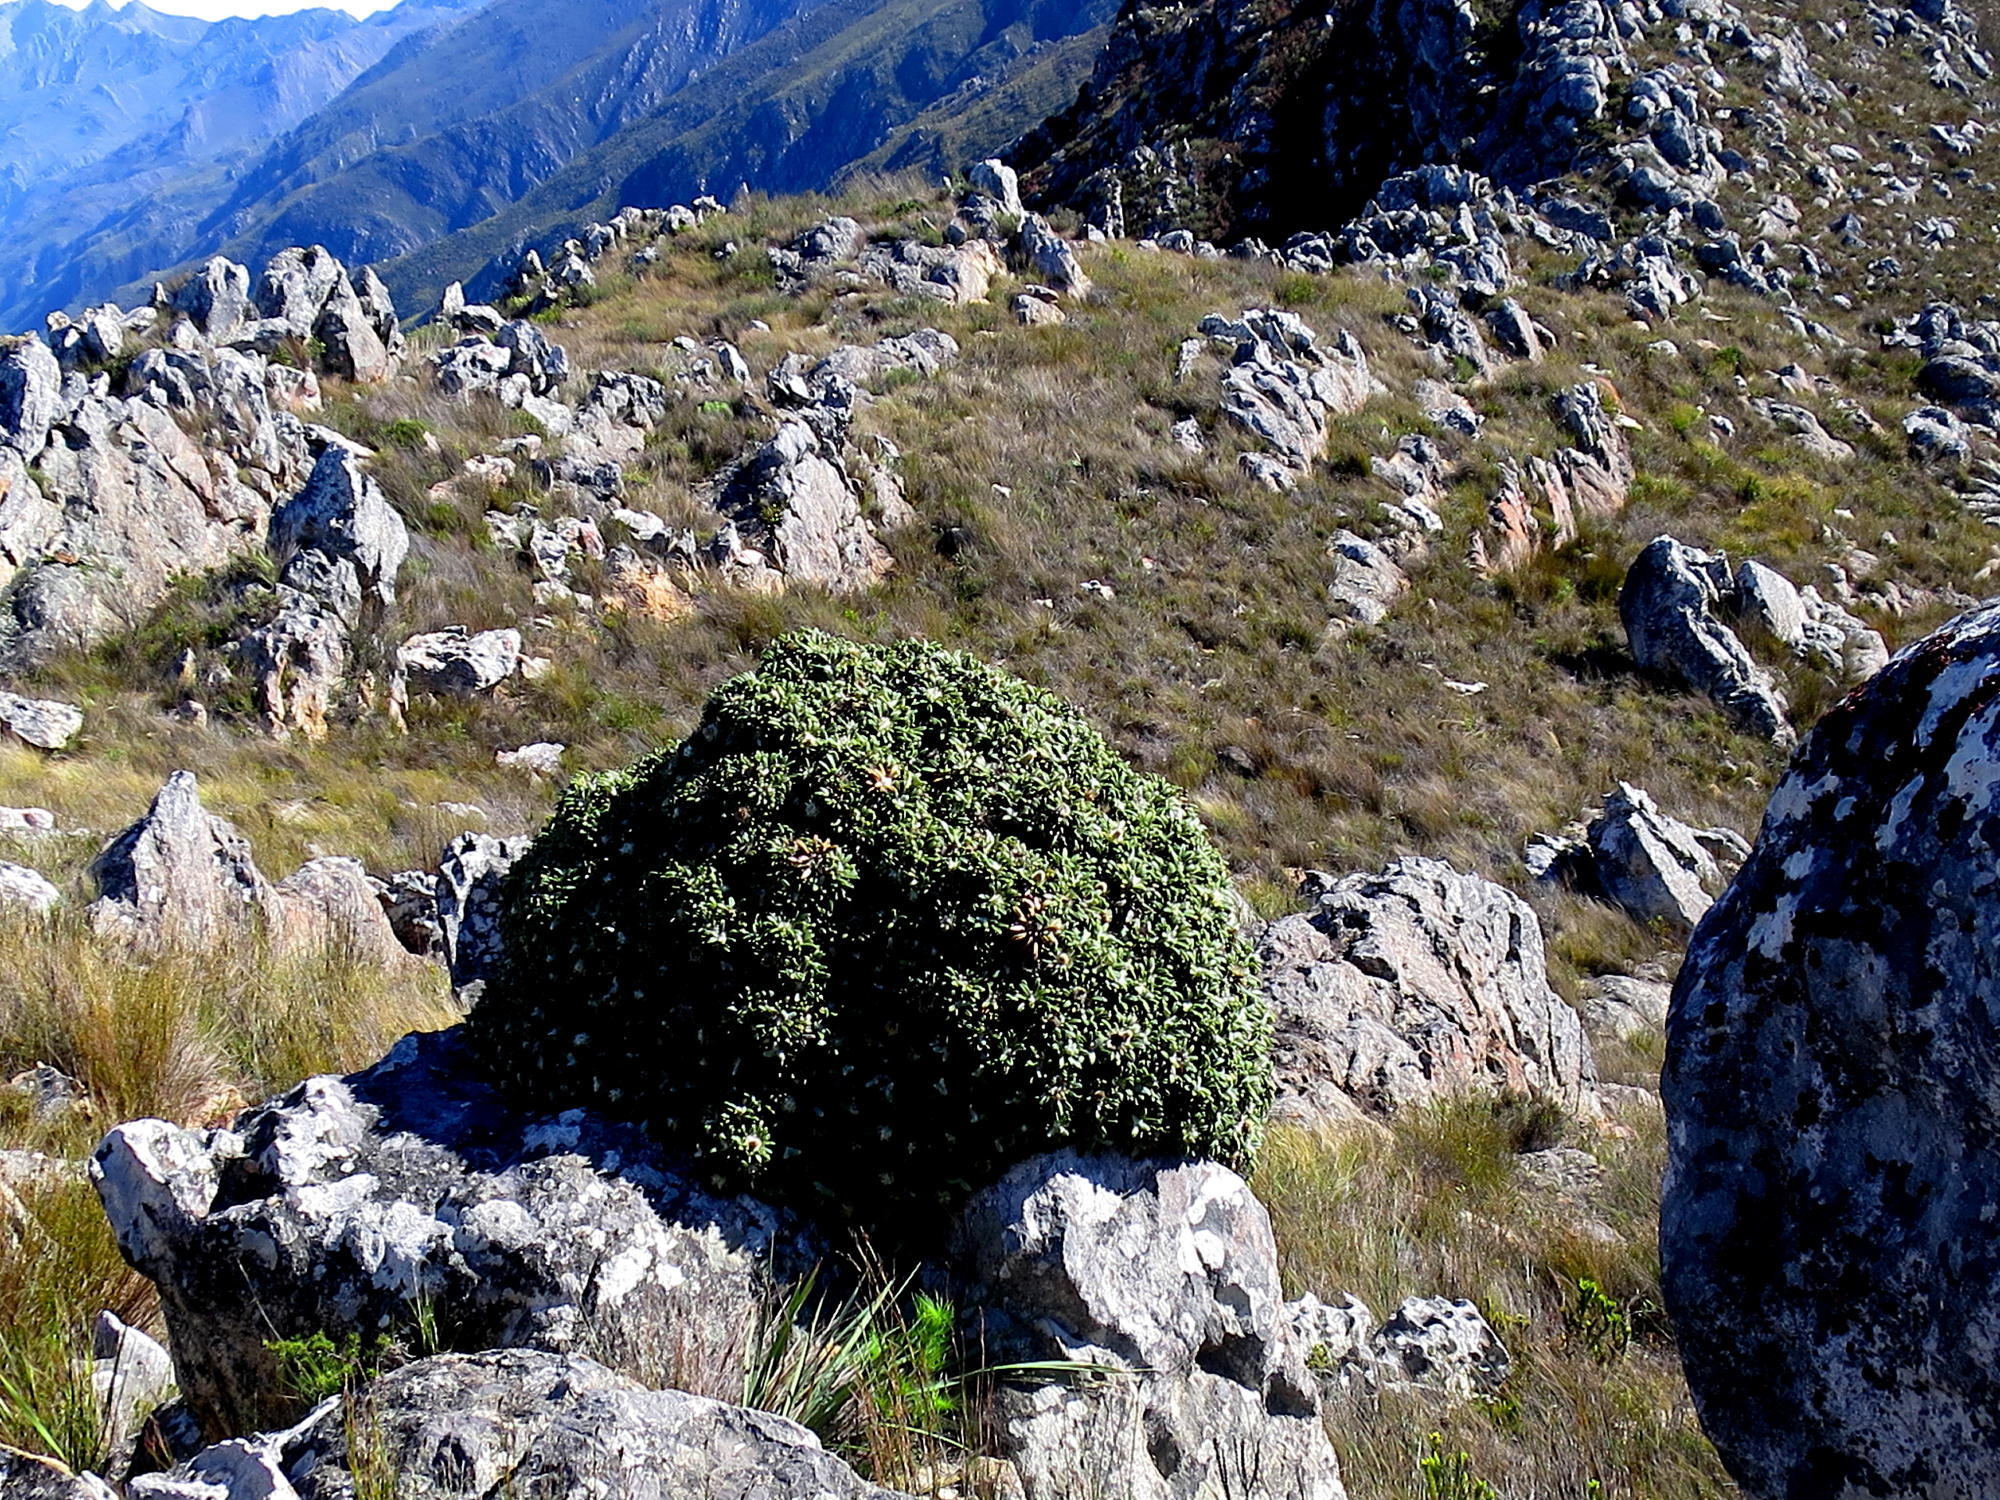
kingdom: Plantae
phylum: Tracheophyta
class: Magnoliopsida
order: Asterales
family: Asteraceae
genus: Oldenburgia
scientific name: Oldenburgia paradoxa
